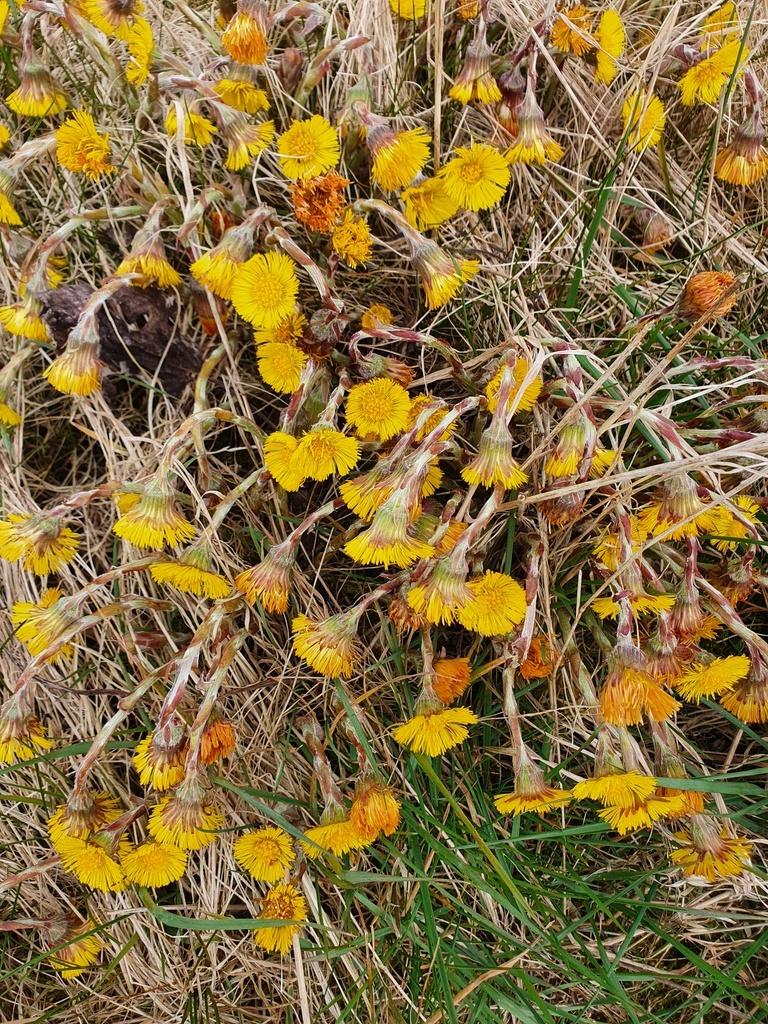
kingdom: Plantae
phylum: Tracheophyta
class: Magnoliopsida
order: Asterales
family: Asteraceae
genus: Tussilago
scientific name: Tussilago farfara
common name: Coltsfoot
